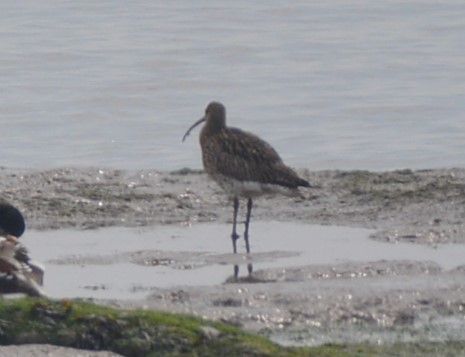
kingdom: Animalia
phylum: Chordata
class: Aves
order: Charadriiformes
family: Scolopacidae
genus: Numenius
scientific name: Numenius arquata
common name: Eurasian curlew
